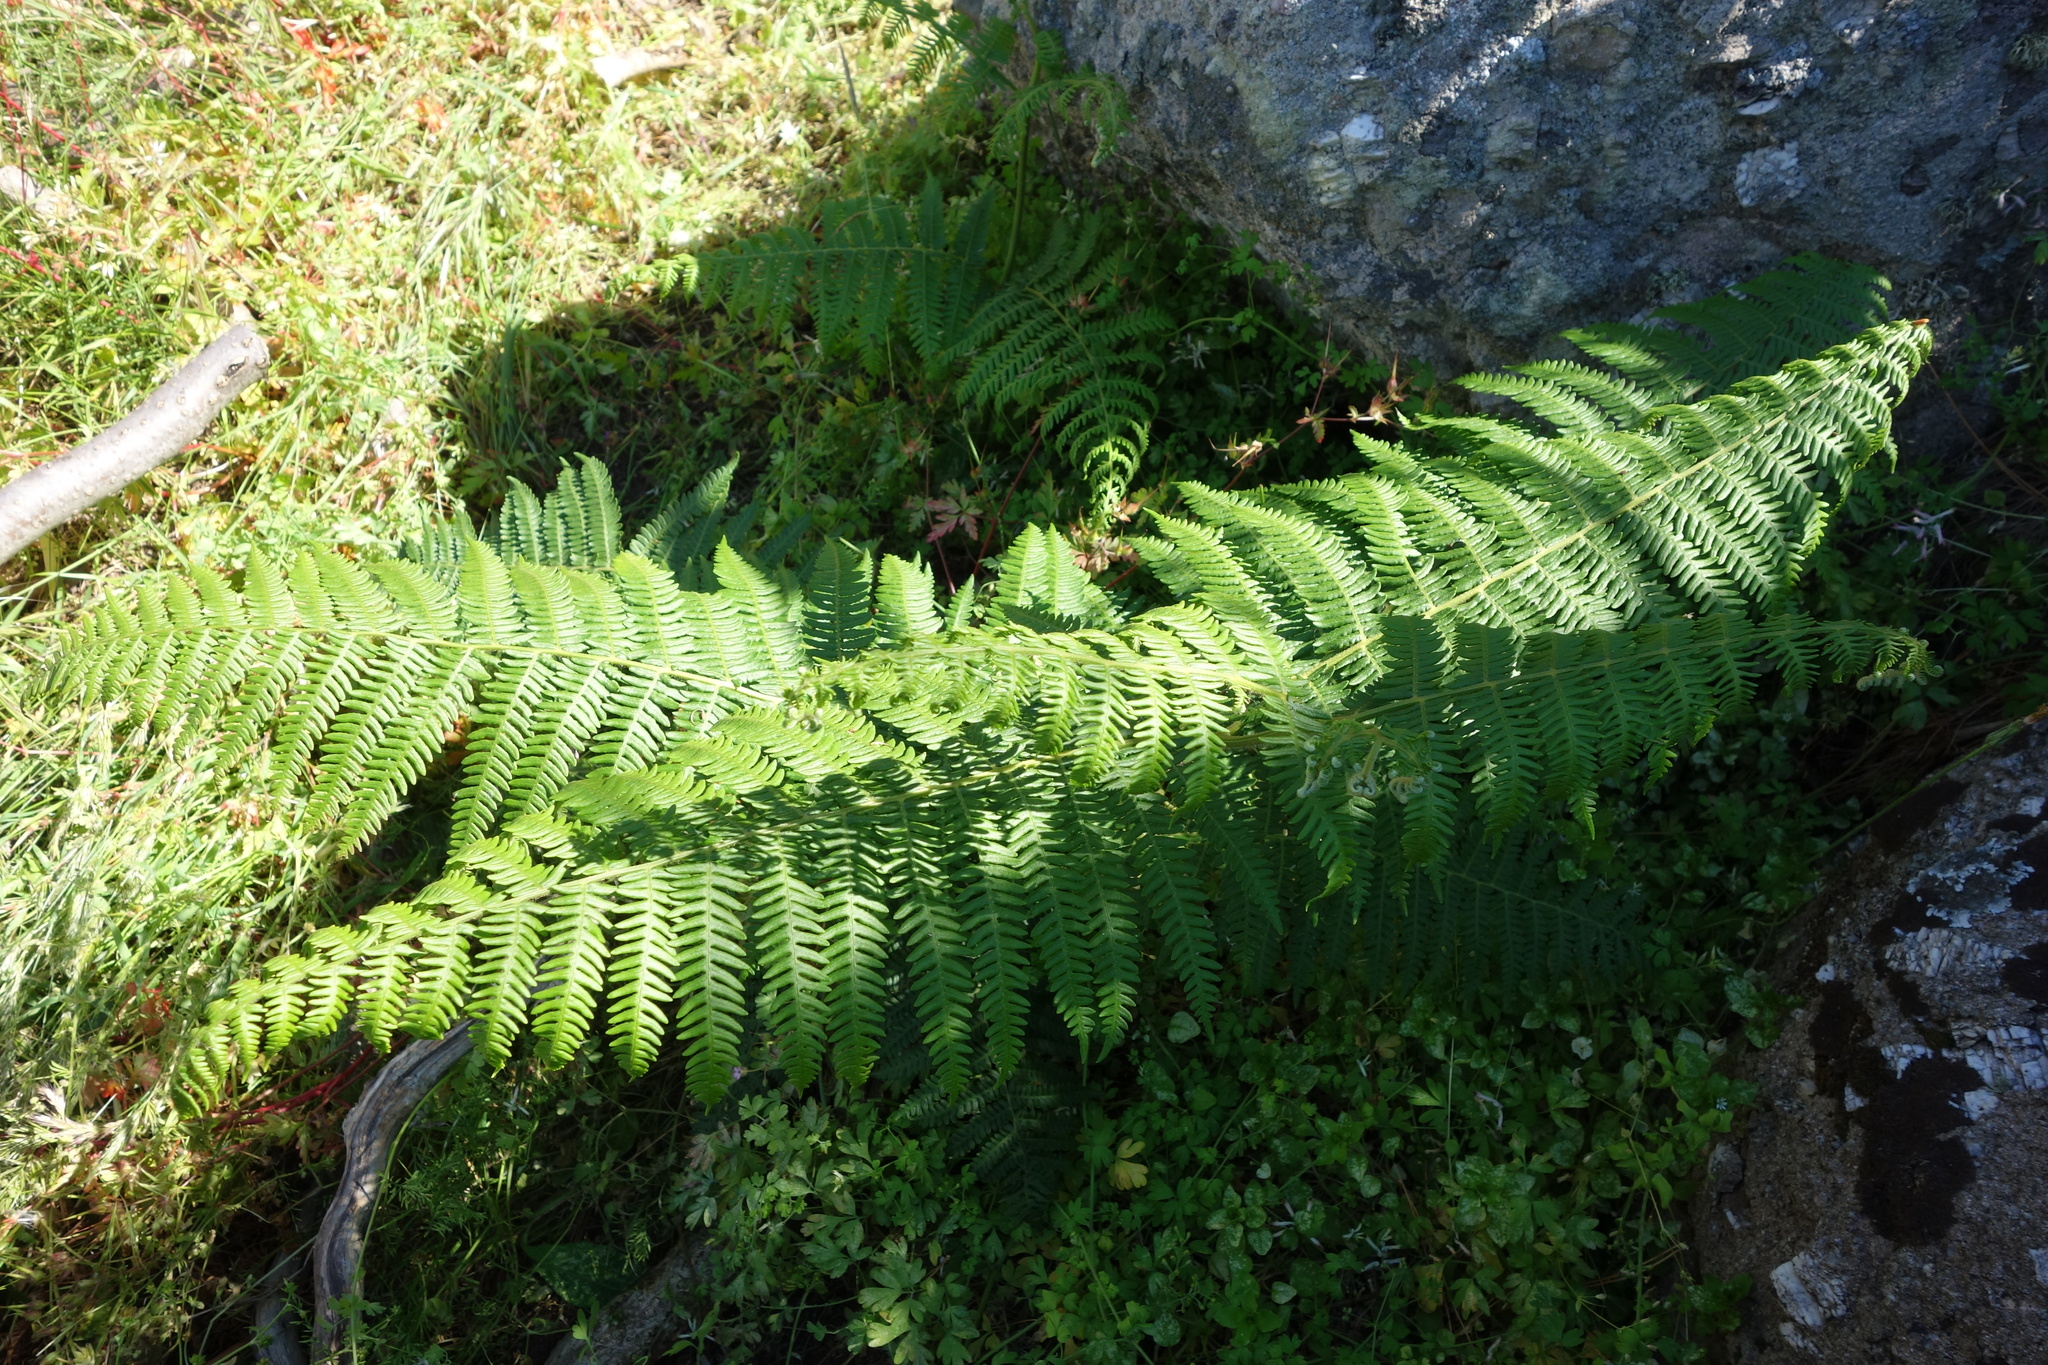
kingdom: Plantae
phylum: Tracheophyta
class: Polypodiopsida
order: Polypodiales
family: Dennstaedtiaceae
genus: Pteridium
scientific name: Pteridium aquilinum
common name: Bracken
